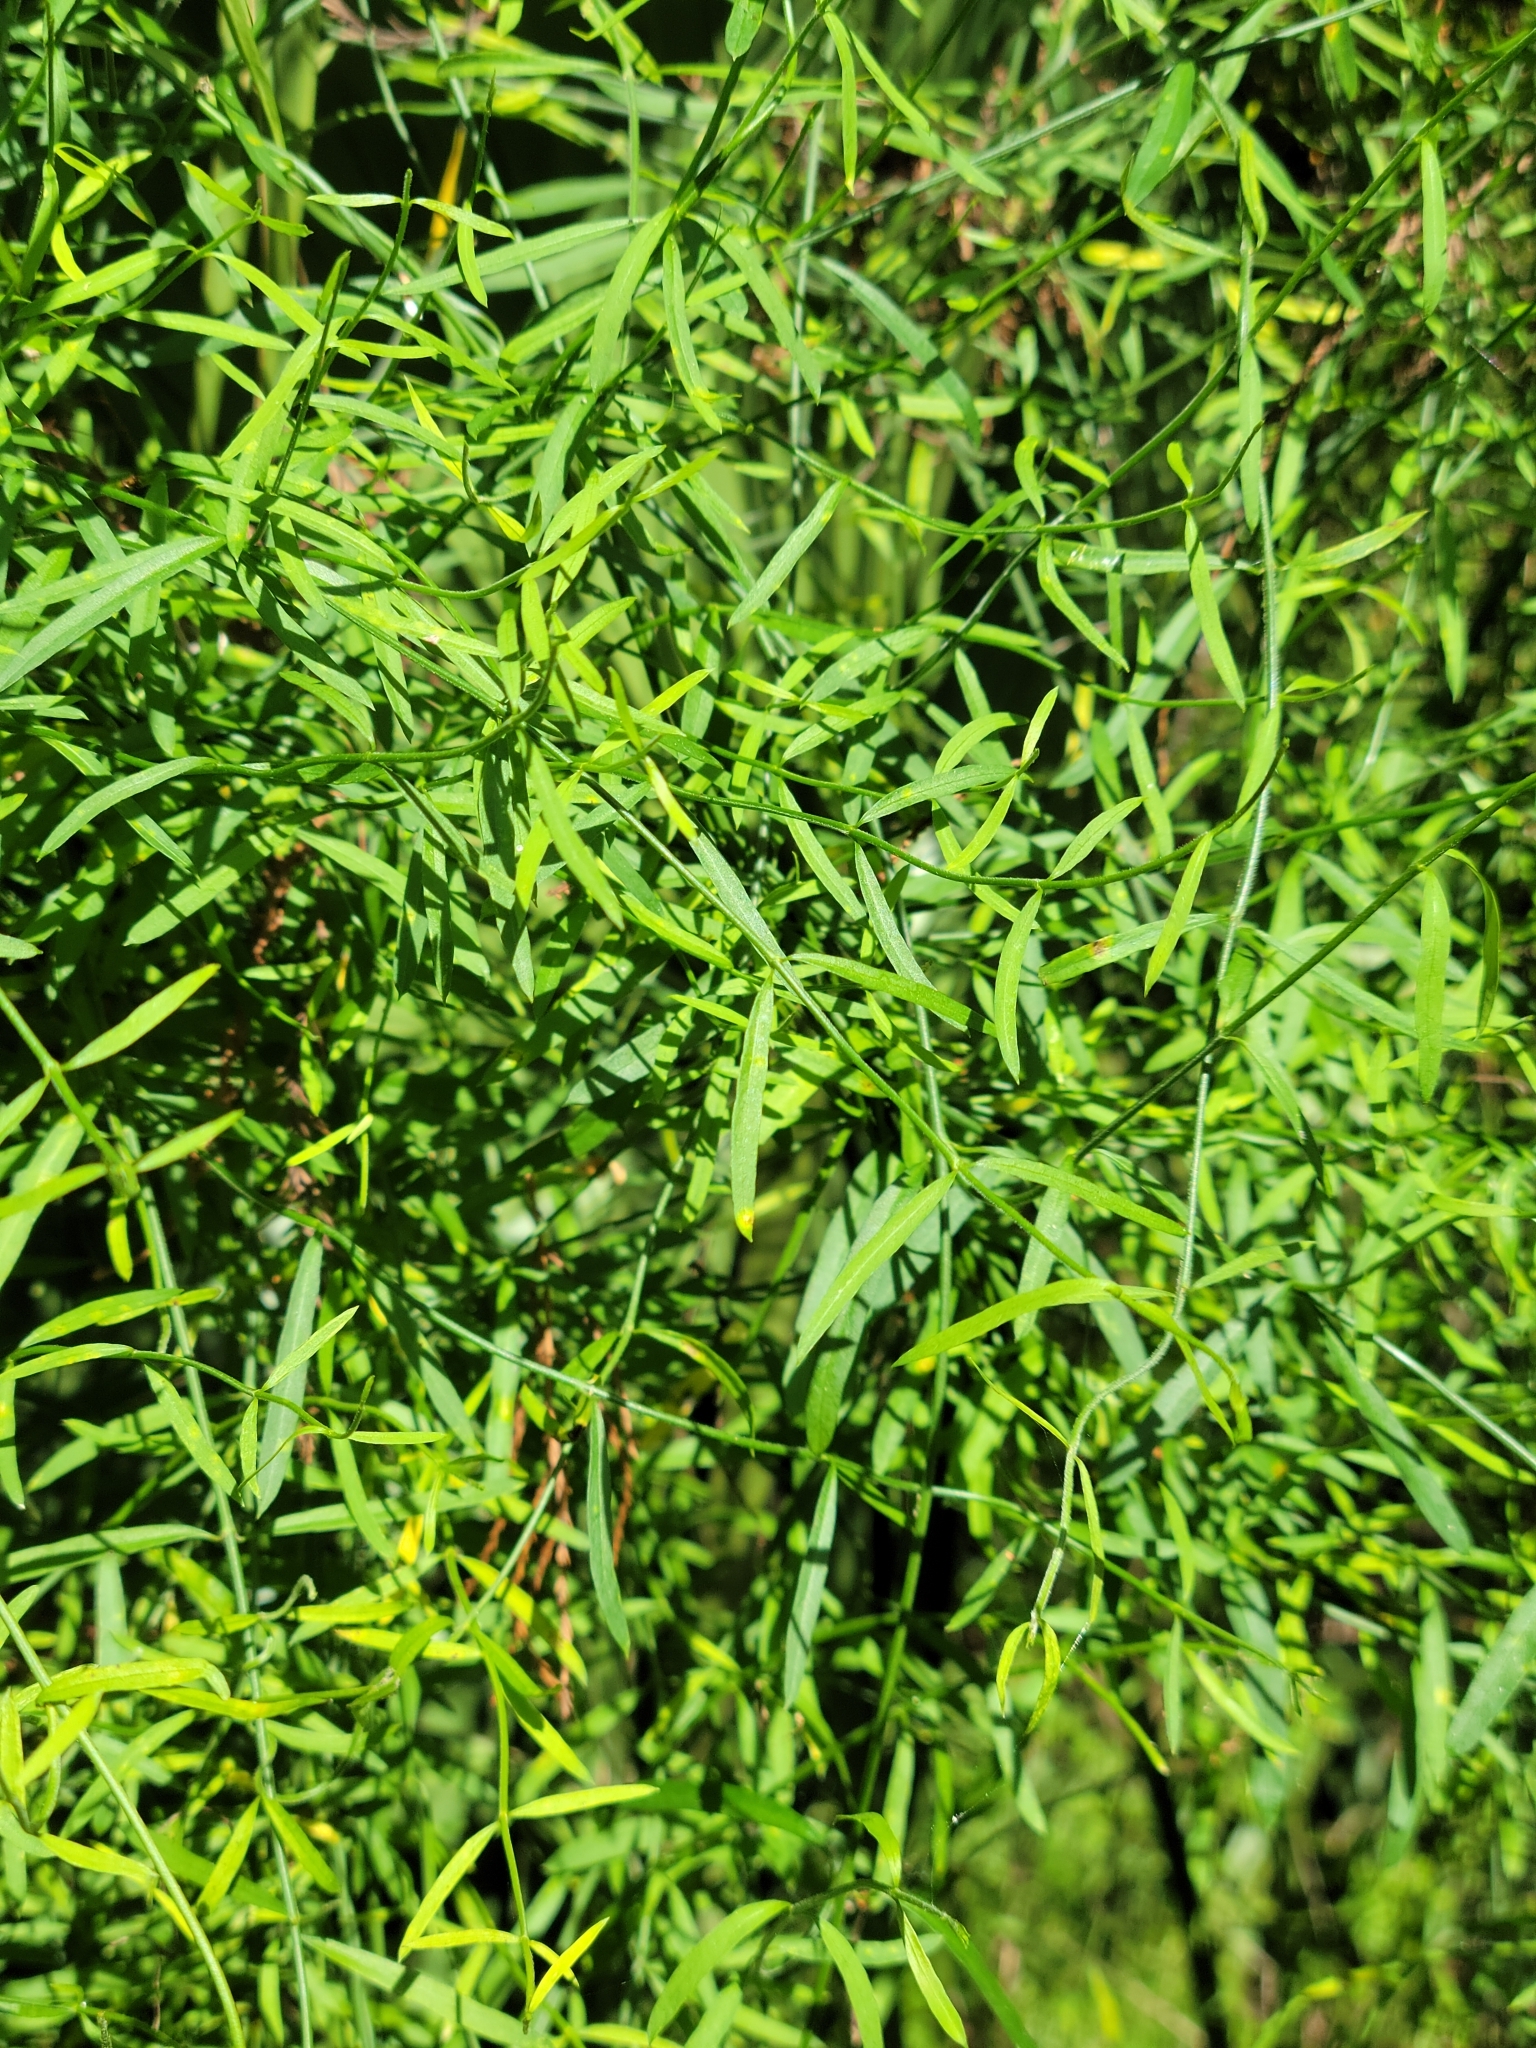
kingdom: Plantae
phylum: Tracheophyta
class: Magnoliopsida
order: Gentianales
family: Apocynaceae
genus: Orthosia
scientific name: Orthosia scoparia
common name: Leafless swallow-wort
